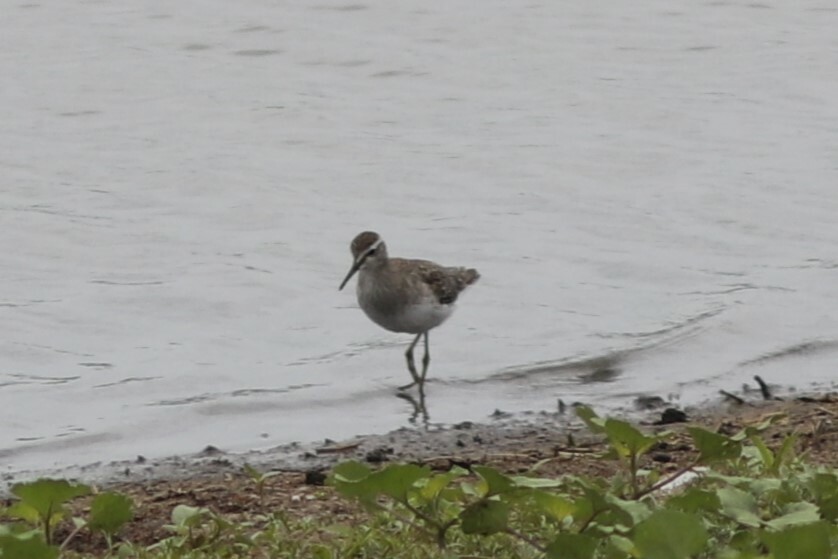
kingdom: Animalia
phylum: Chordata
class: Aves
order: Charadriiformes
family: Scolopacidae
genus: Tringa
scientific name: Tringa glareola
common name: Wood sandpiper
